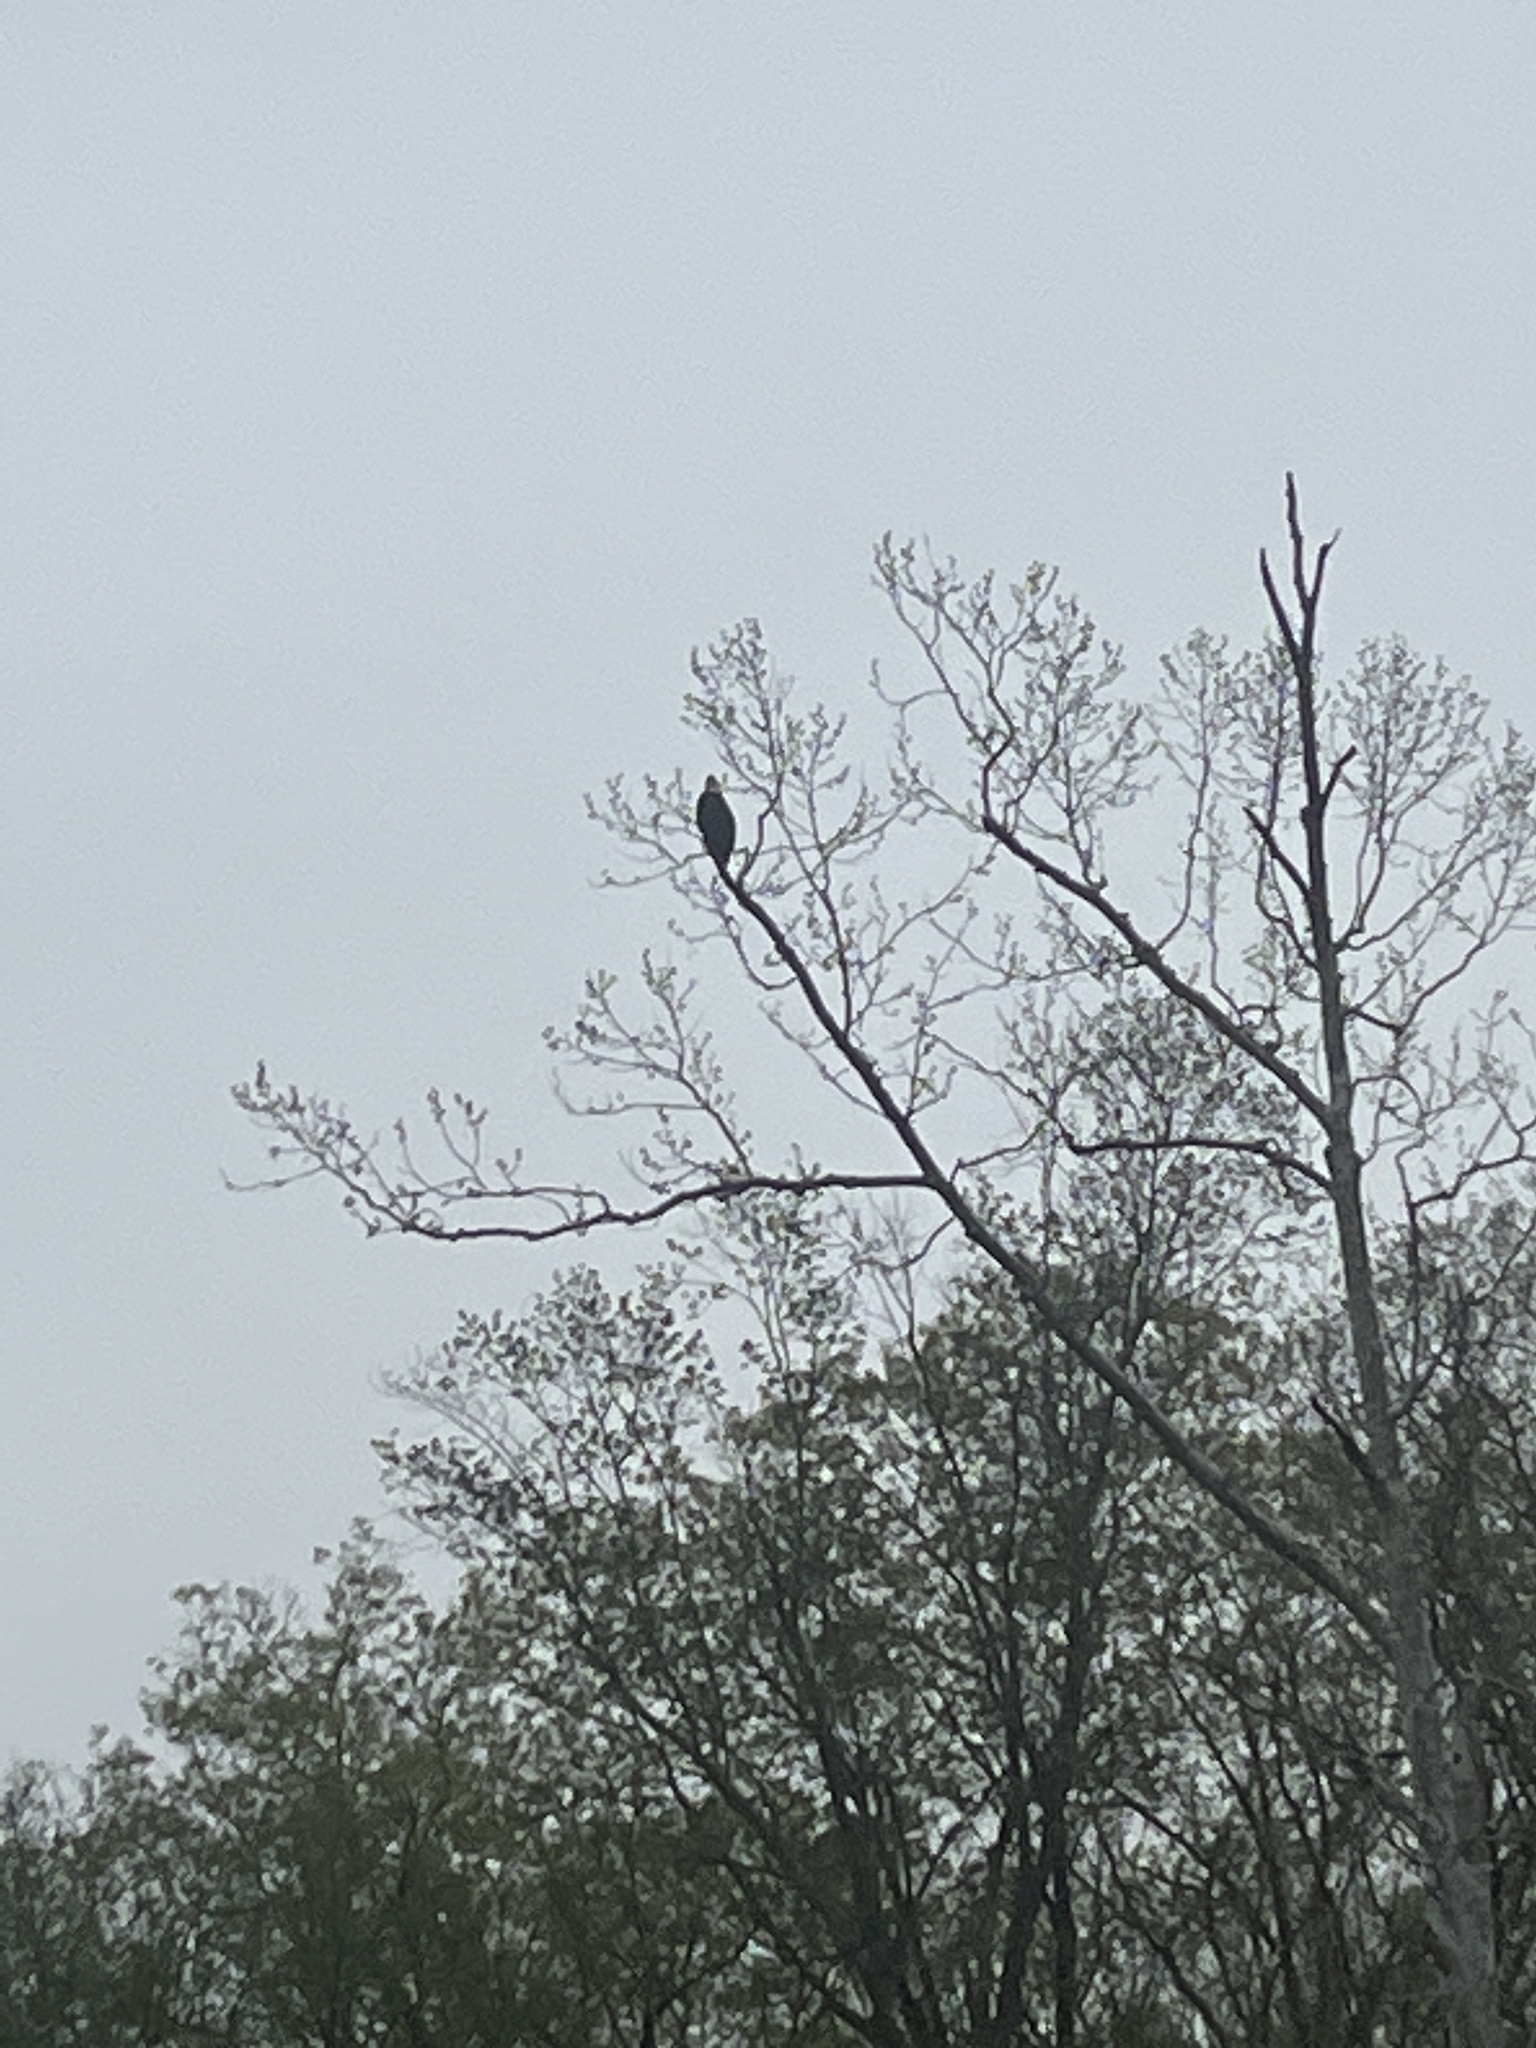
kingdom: Animalia
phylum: Chordata
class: Aves
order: Accipitriformes
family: Accipitridae
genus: Haliaeetus
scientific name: Haliaeetus leucocephalus
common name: Bald eagle
